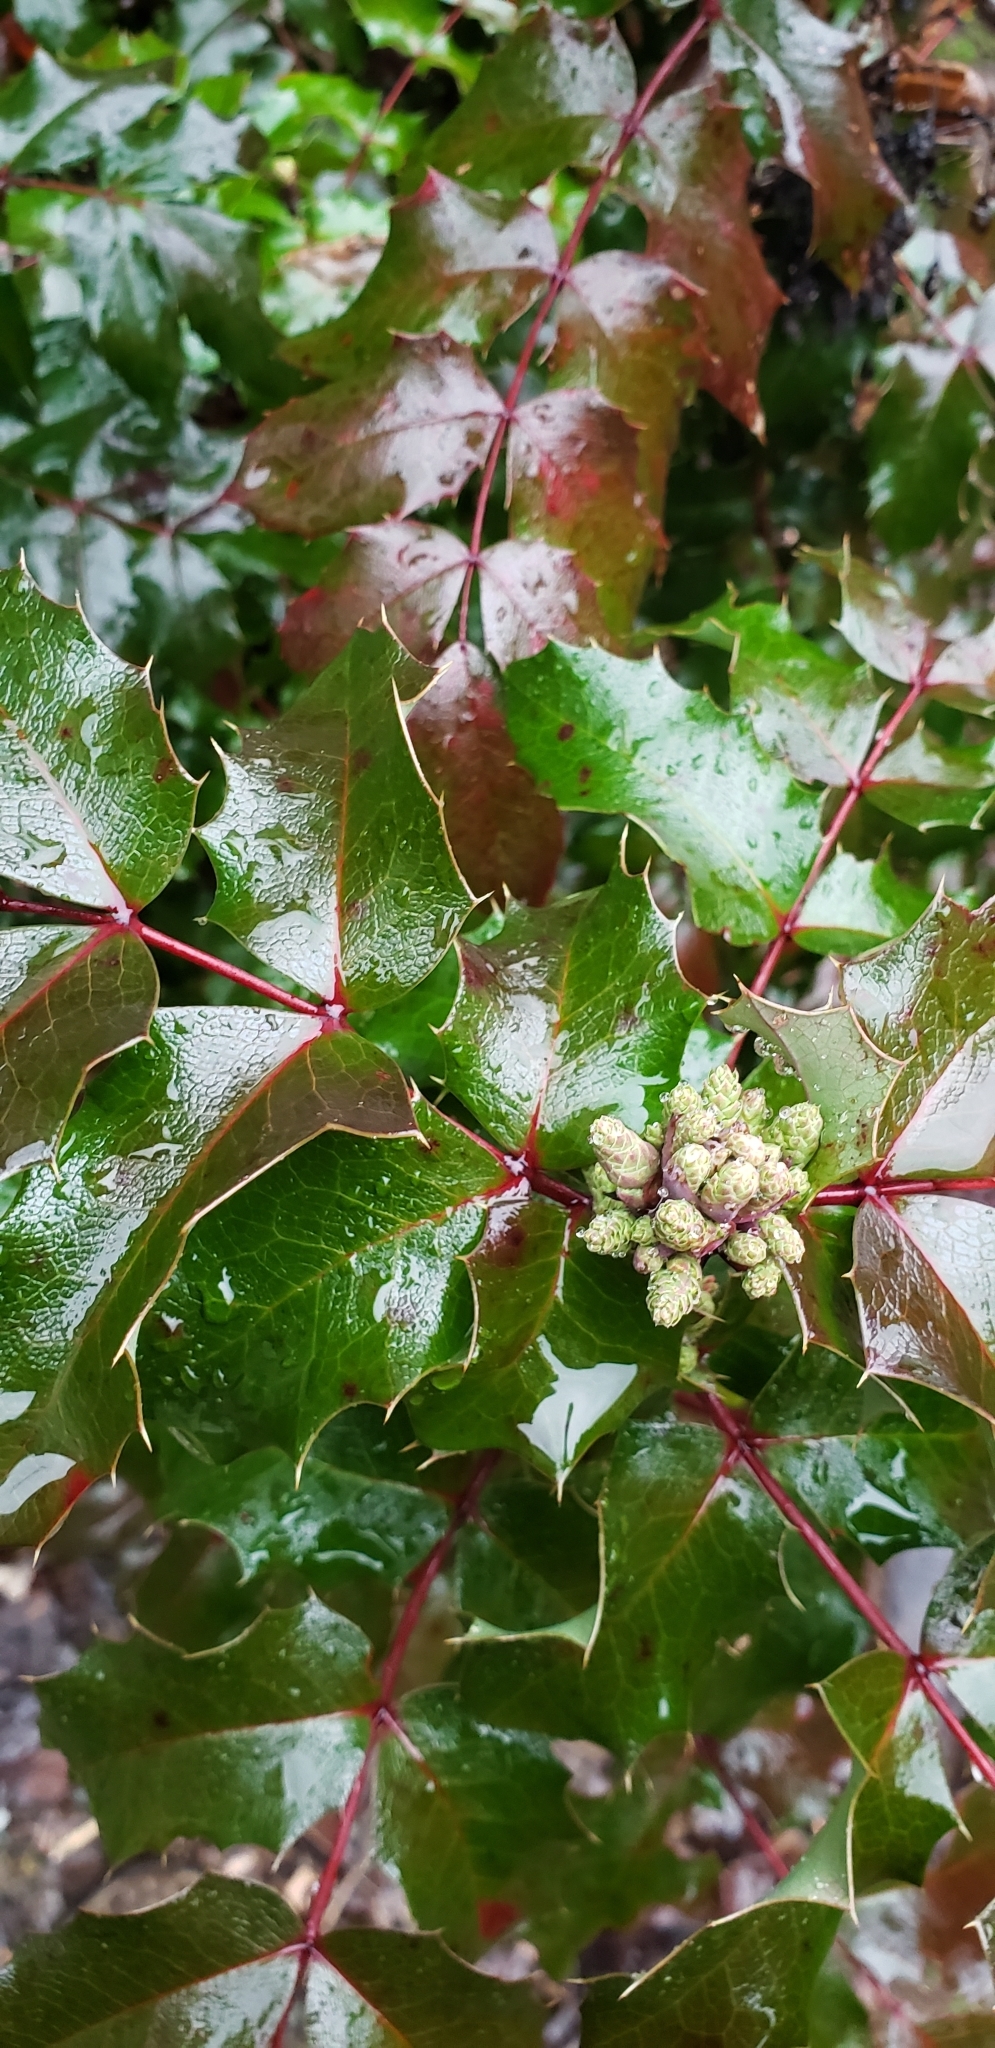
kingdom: Plantae
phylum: Tracheophyta
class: Magnoliopsida
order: Ranunculales
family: Berberidaceae
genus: Mahonia
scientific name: Mahonia aquifolium
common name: Oregon-grape
